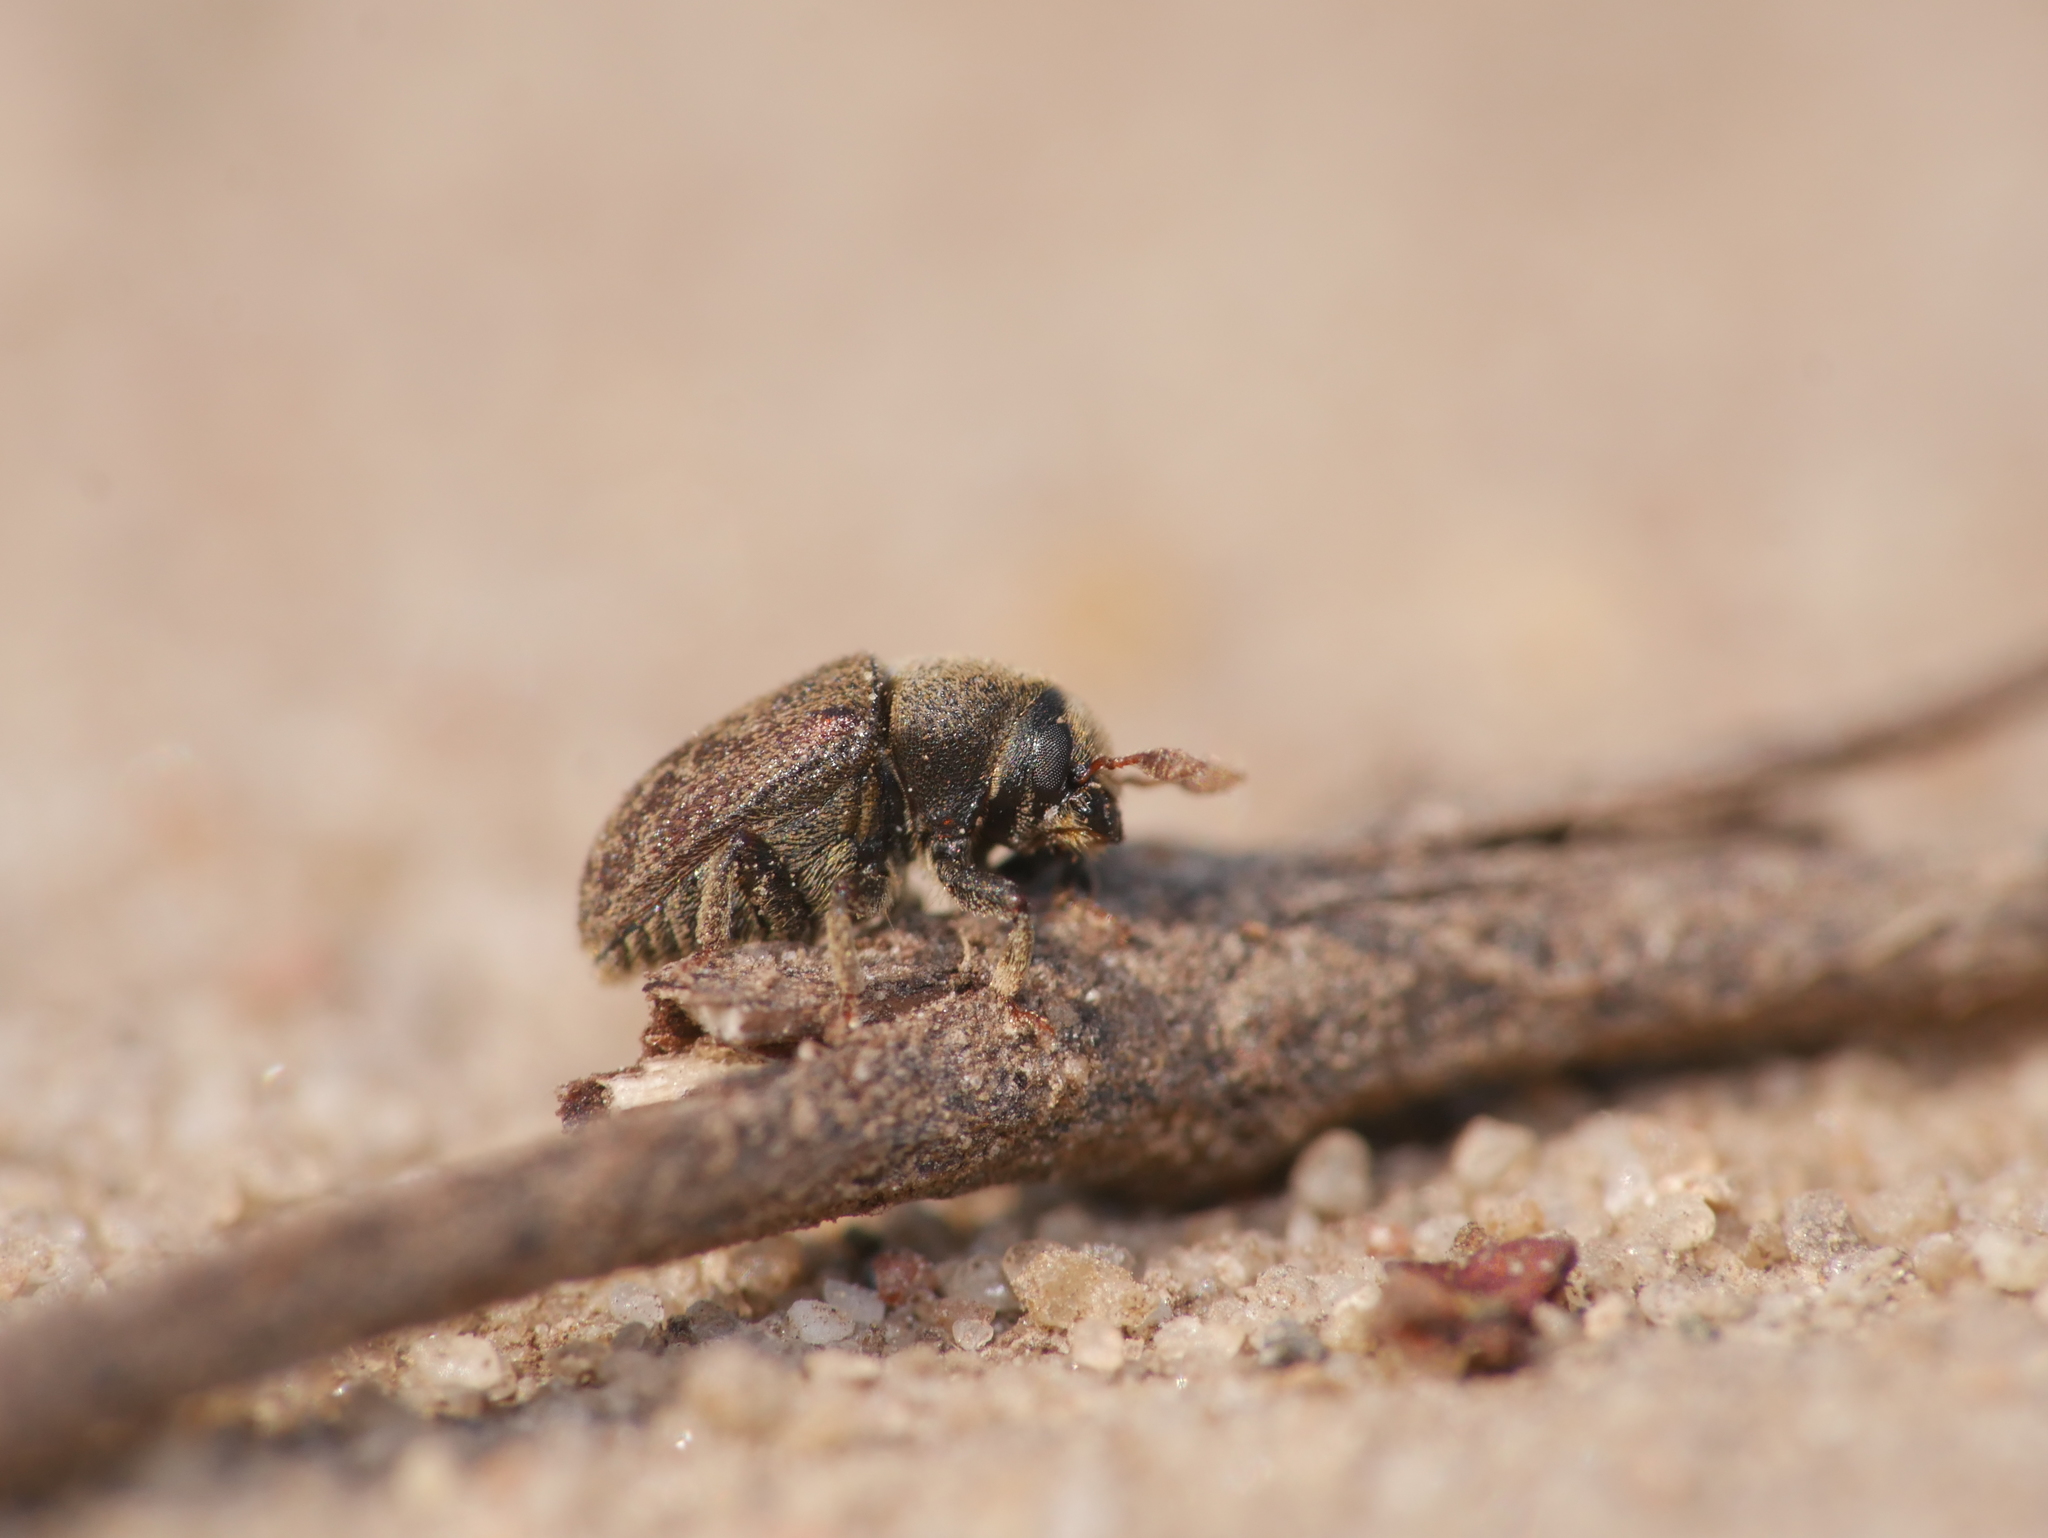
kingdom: Animalia
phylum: Arthropoda
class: Insecta
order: Coleoptera
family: Curculionidae
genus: Hylesinus
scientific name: Hylesinus varius
